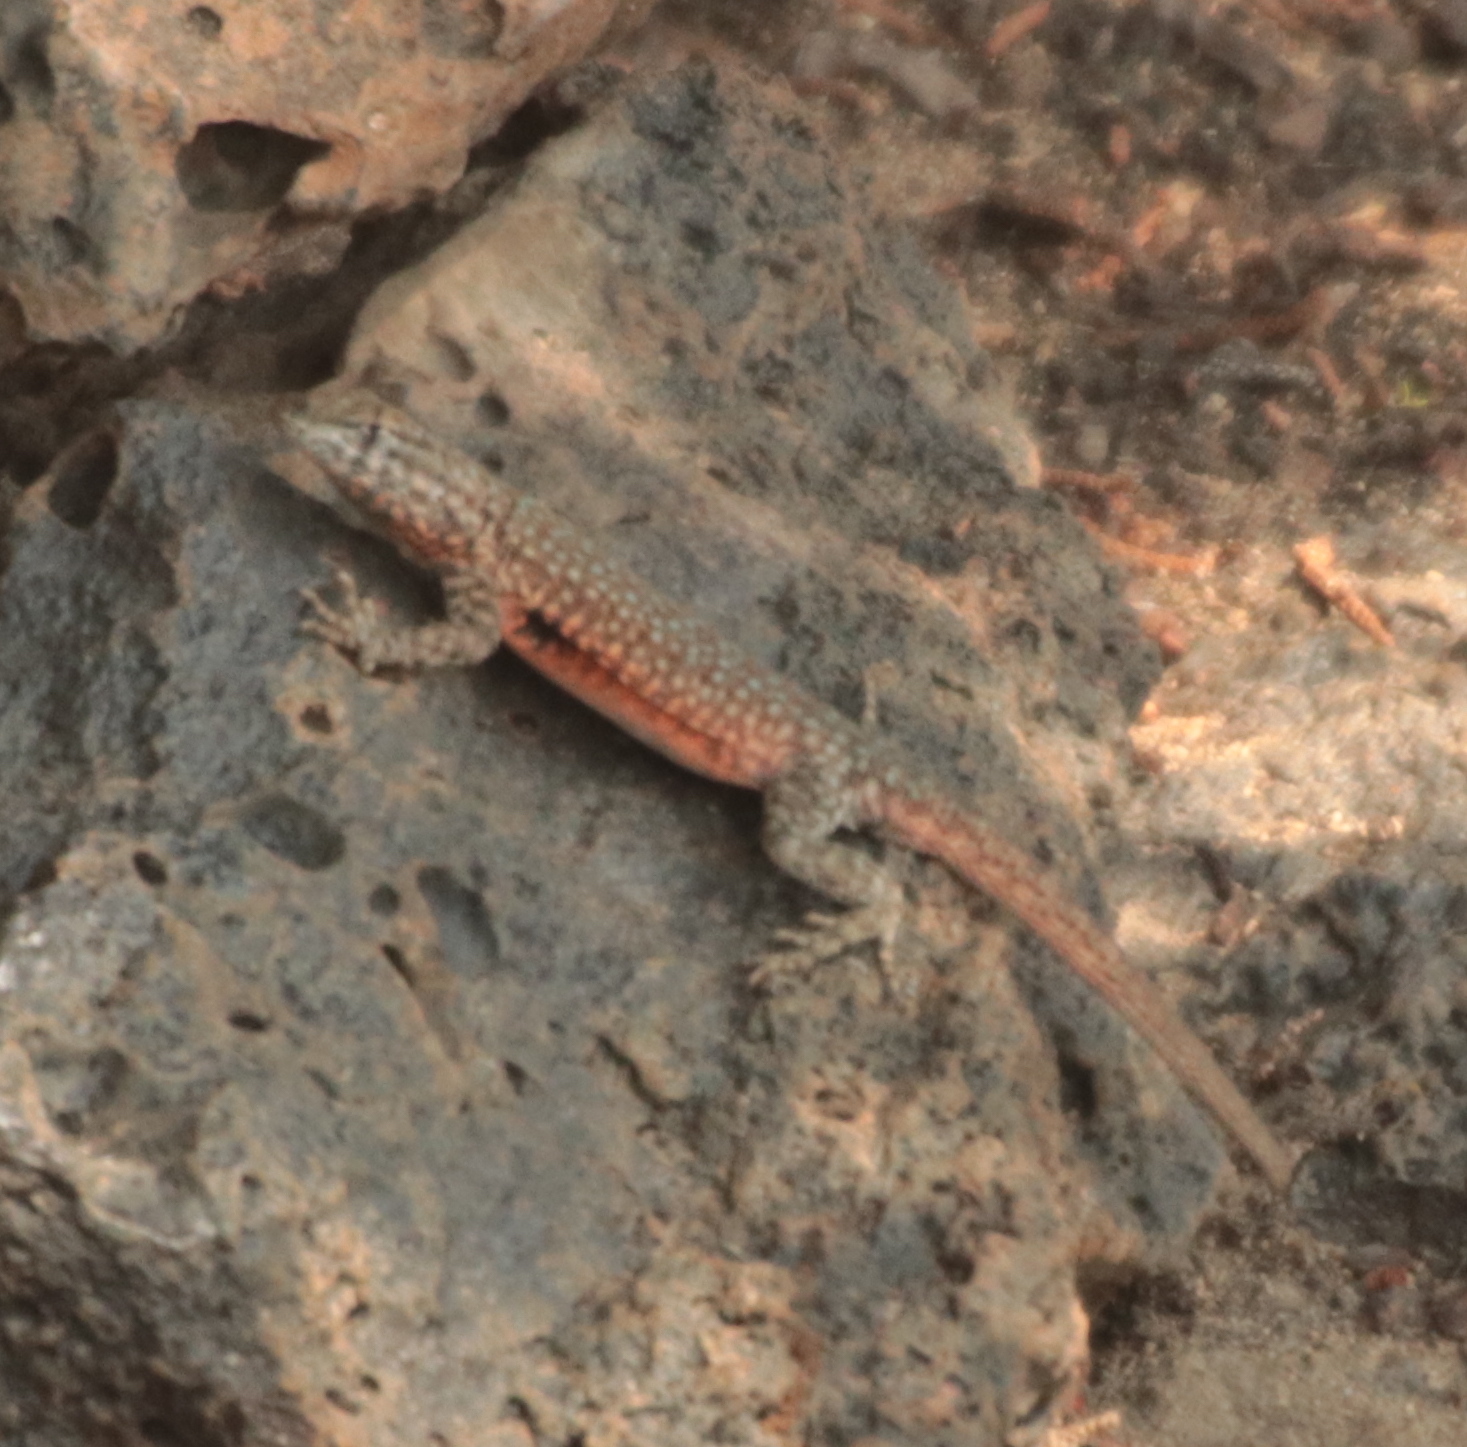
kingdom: Animalia
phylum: Chordata
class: Squamata
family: Phrynosomatidae
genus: Uta
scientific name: Uta stansburiana
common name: Side-blotched lizard
